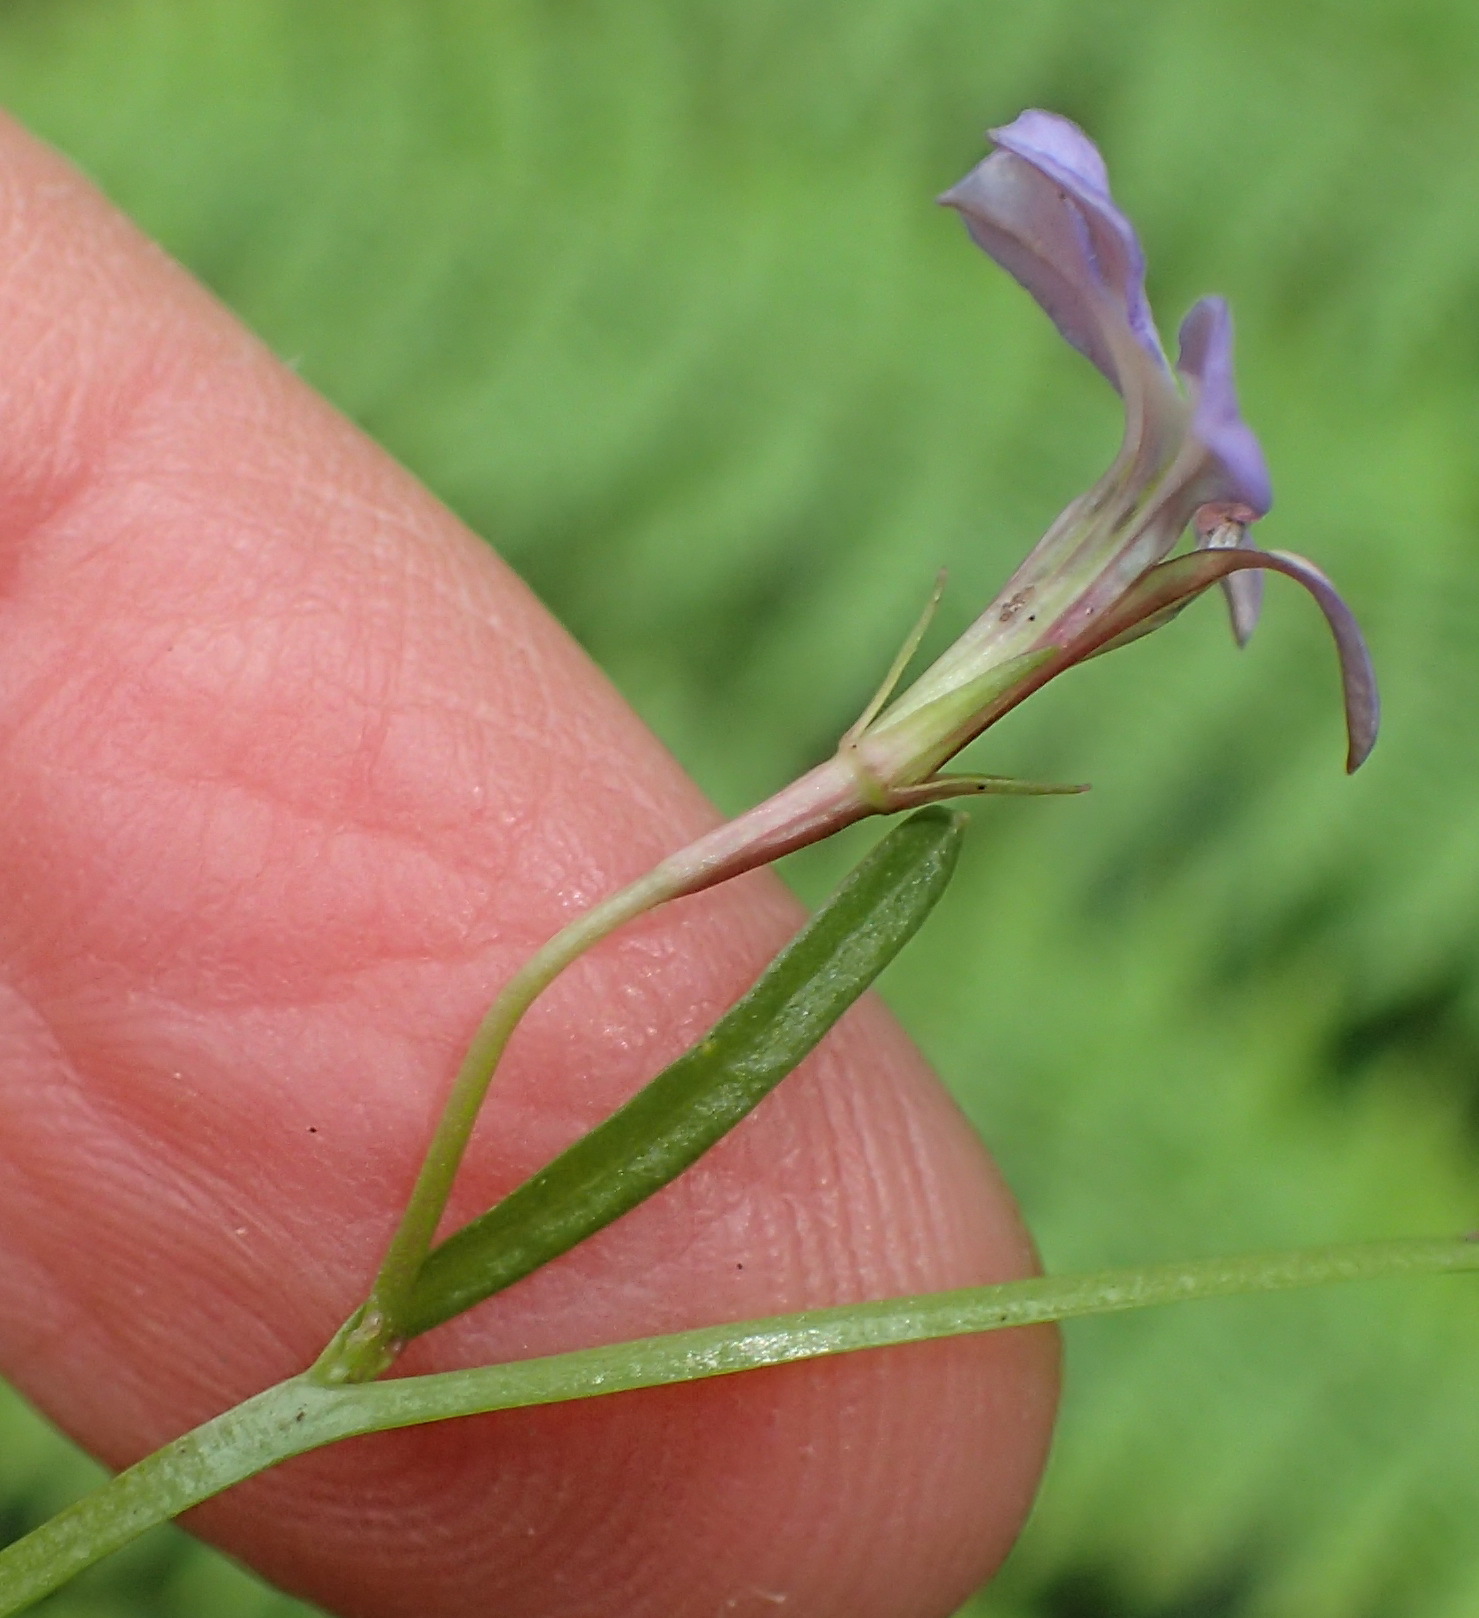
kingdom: Plantae
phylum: Tracheophyta
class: Magnoliopsida
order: Asterales
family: Campanulaceae
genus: Lobelia
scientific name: Lobelia anceps
